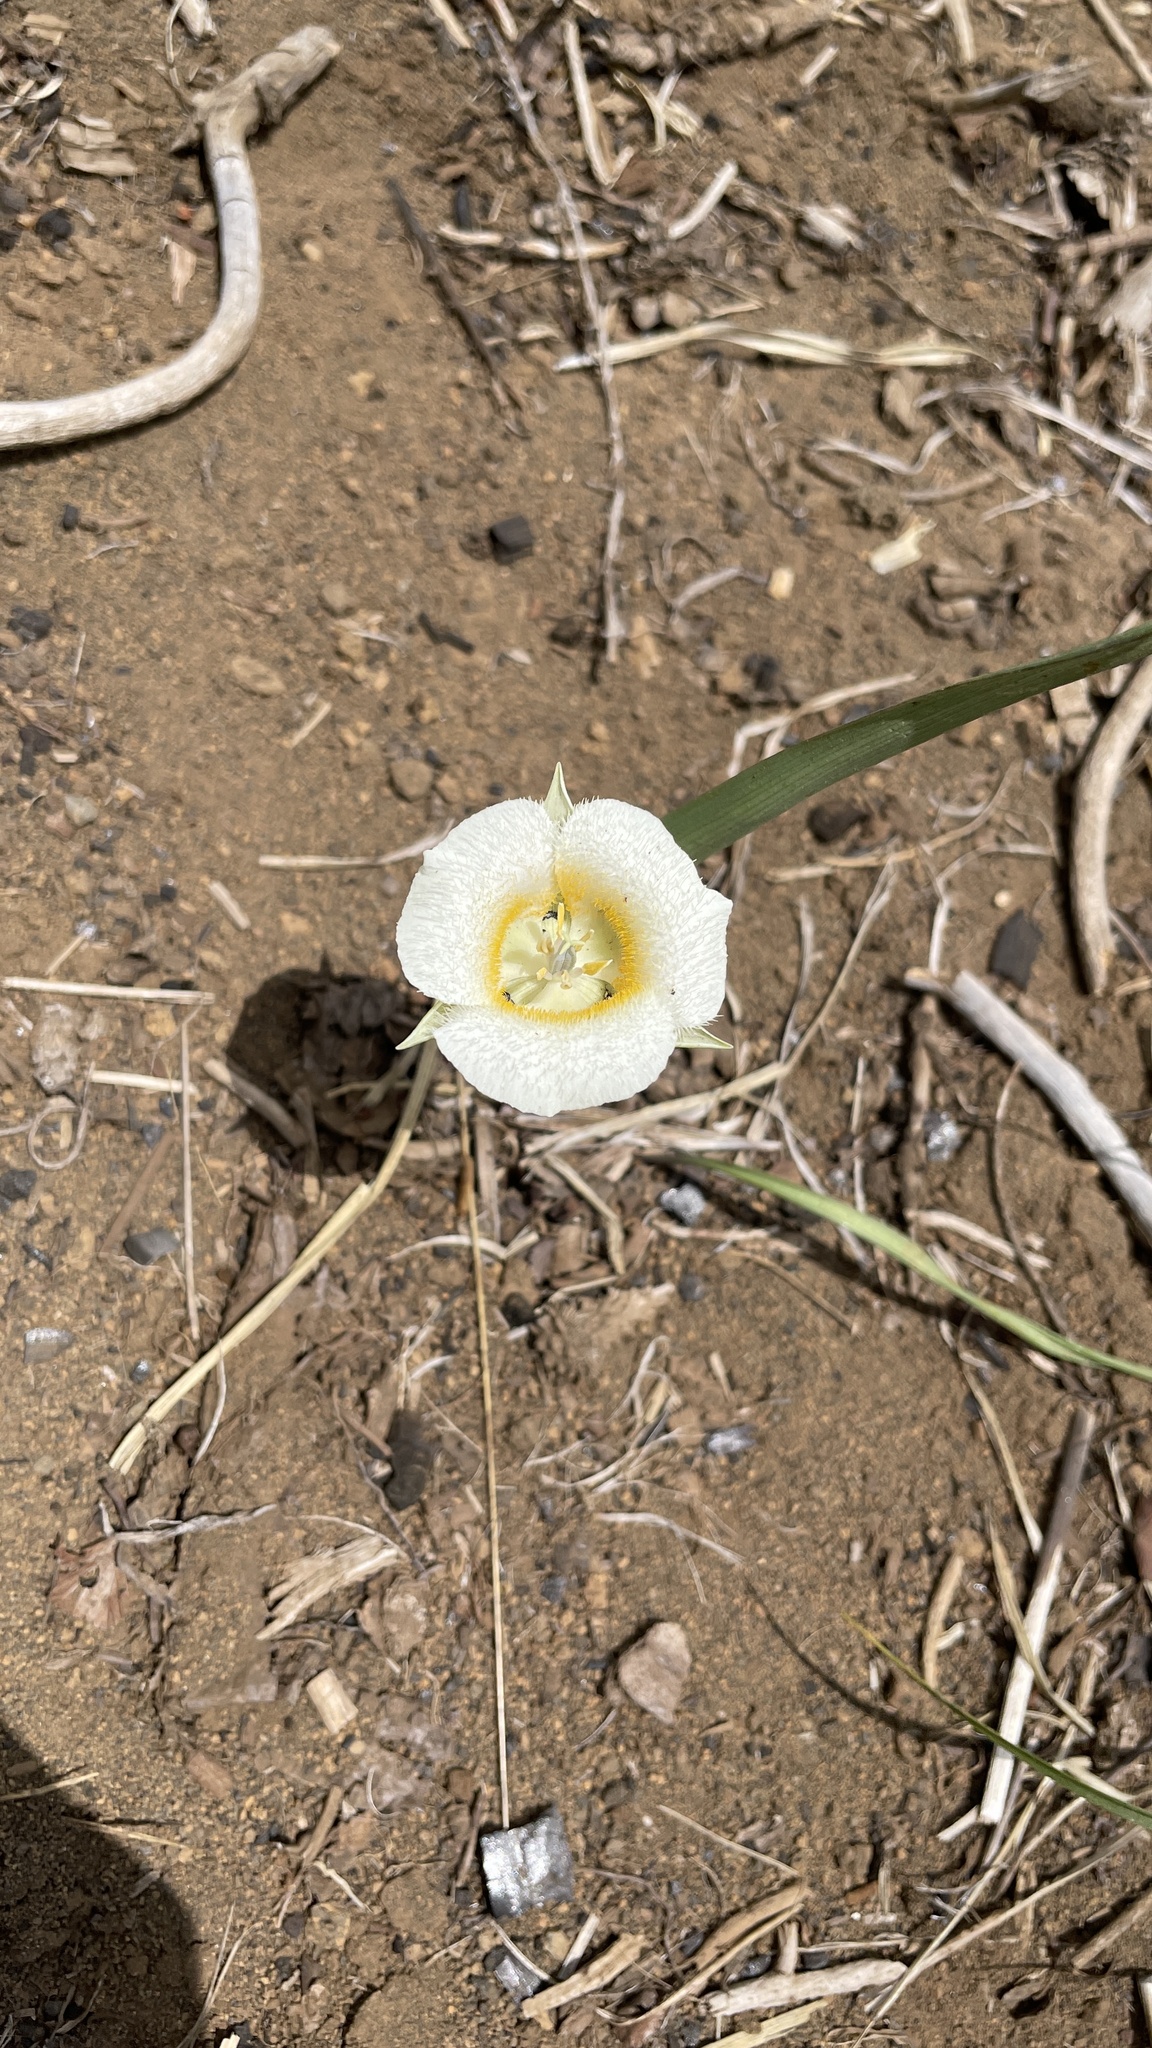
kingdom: Plantae
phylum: Tracheophyta
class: Liliopsida
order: Liliales
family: Liliaceae
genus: Calochortus
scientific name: Calochortus subalpinus
